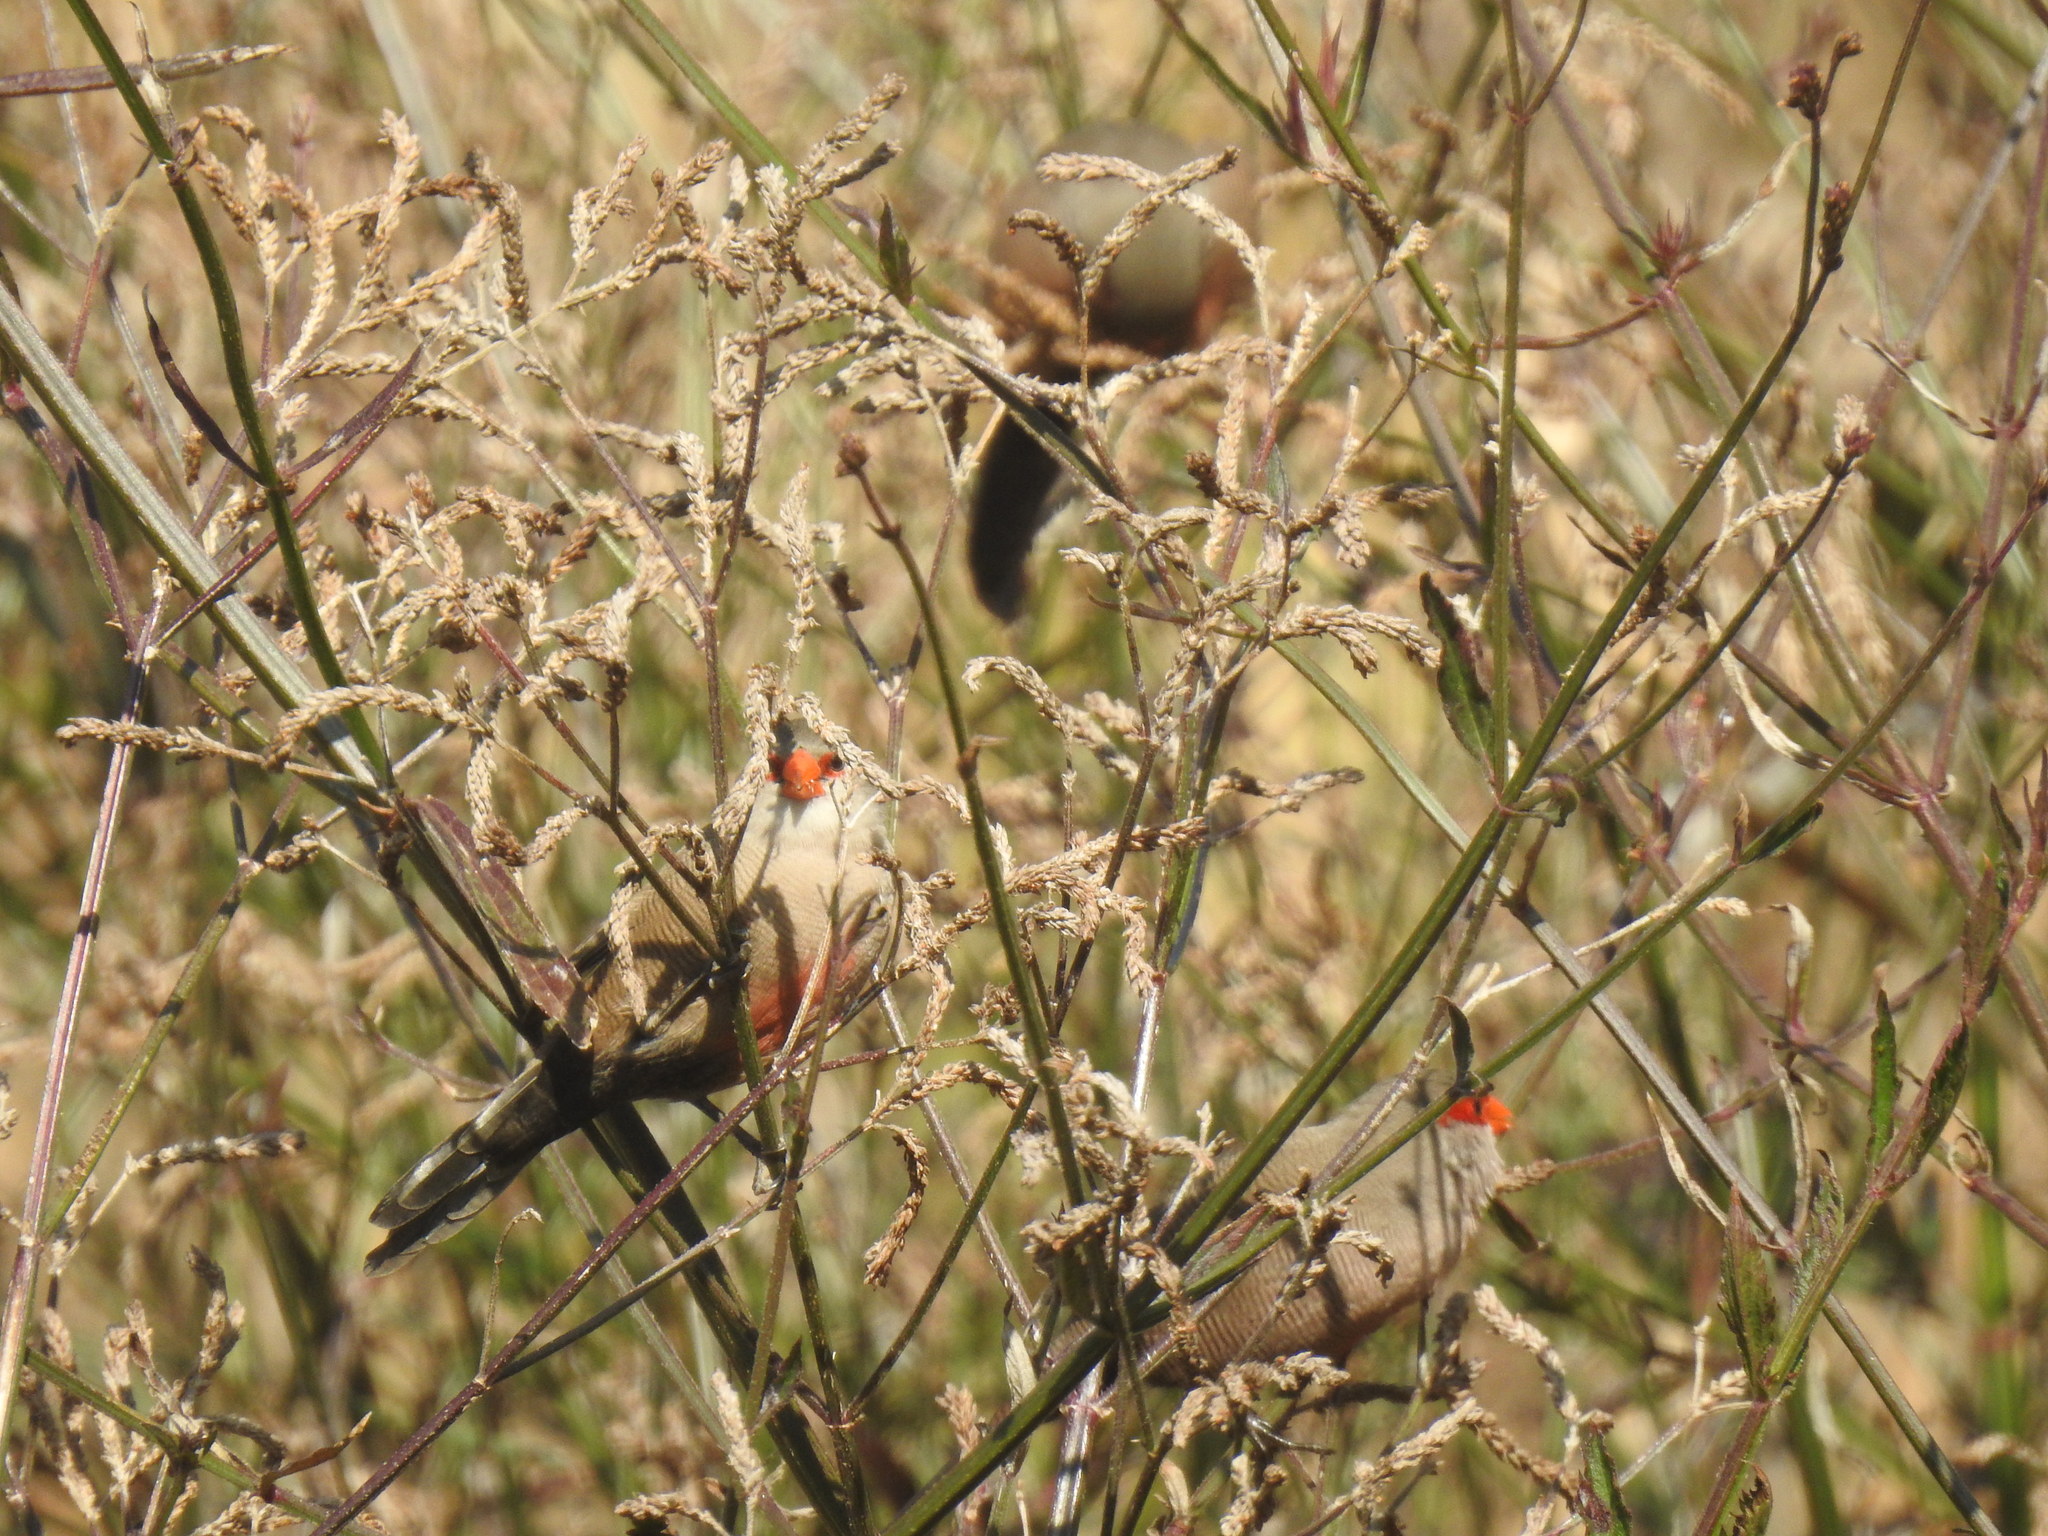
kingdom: Animalia
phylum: Chordata
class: Aves
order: Passeriformes
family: Estrildidae
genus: Estrilda
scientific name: Estrilda astrild
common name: Common waxbill
